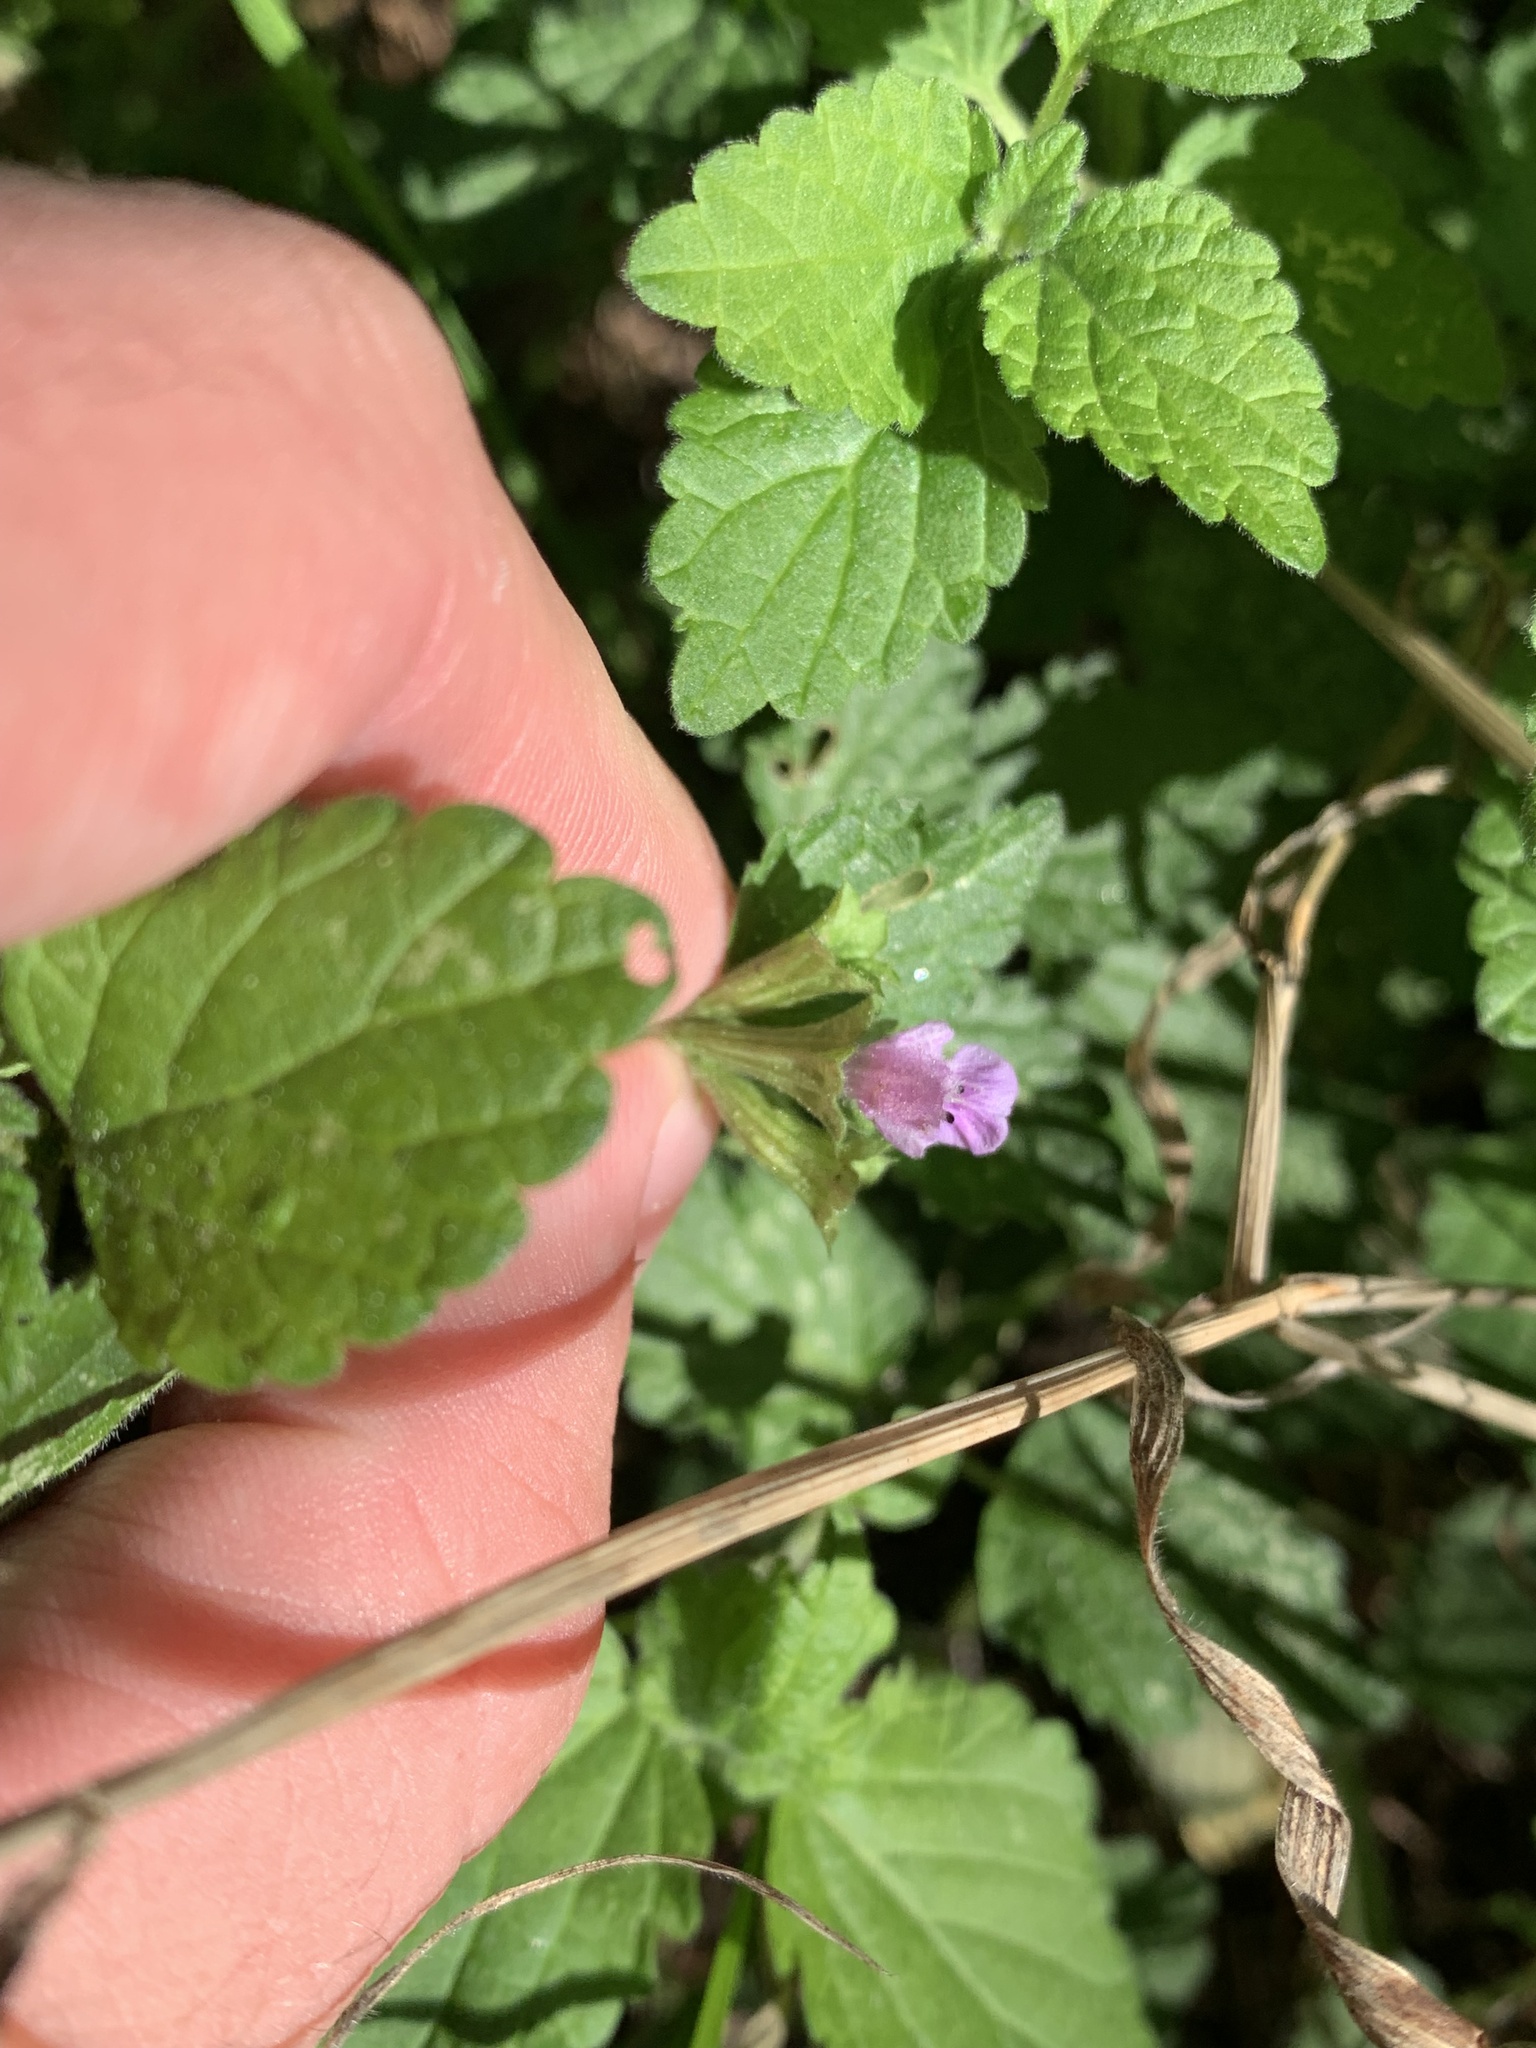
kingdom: Plantae
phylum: Tracheophyta
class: Magnoliopsida
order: Lamiales
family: Lamiaceae
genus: Ballota
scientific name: Ballota nigra
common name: Black horehound
